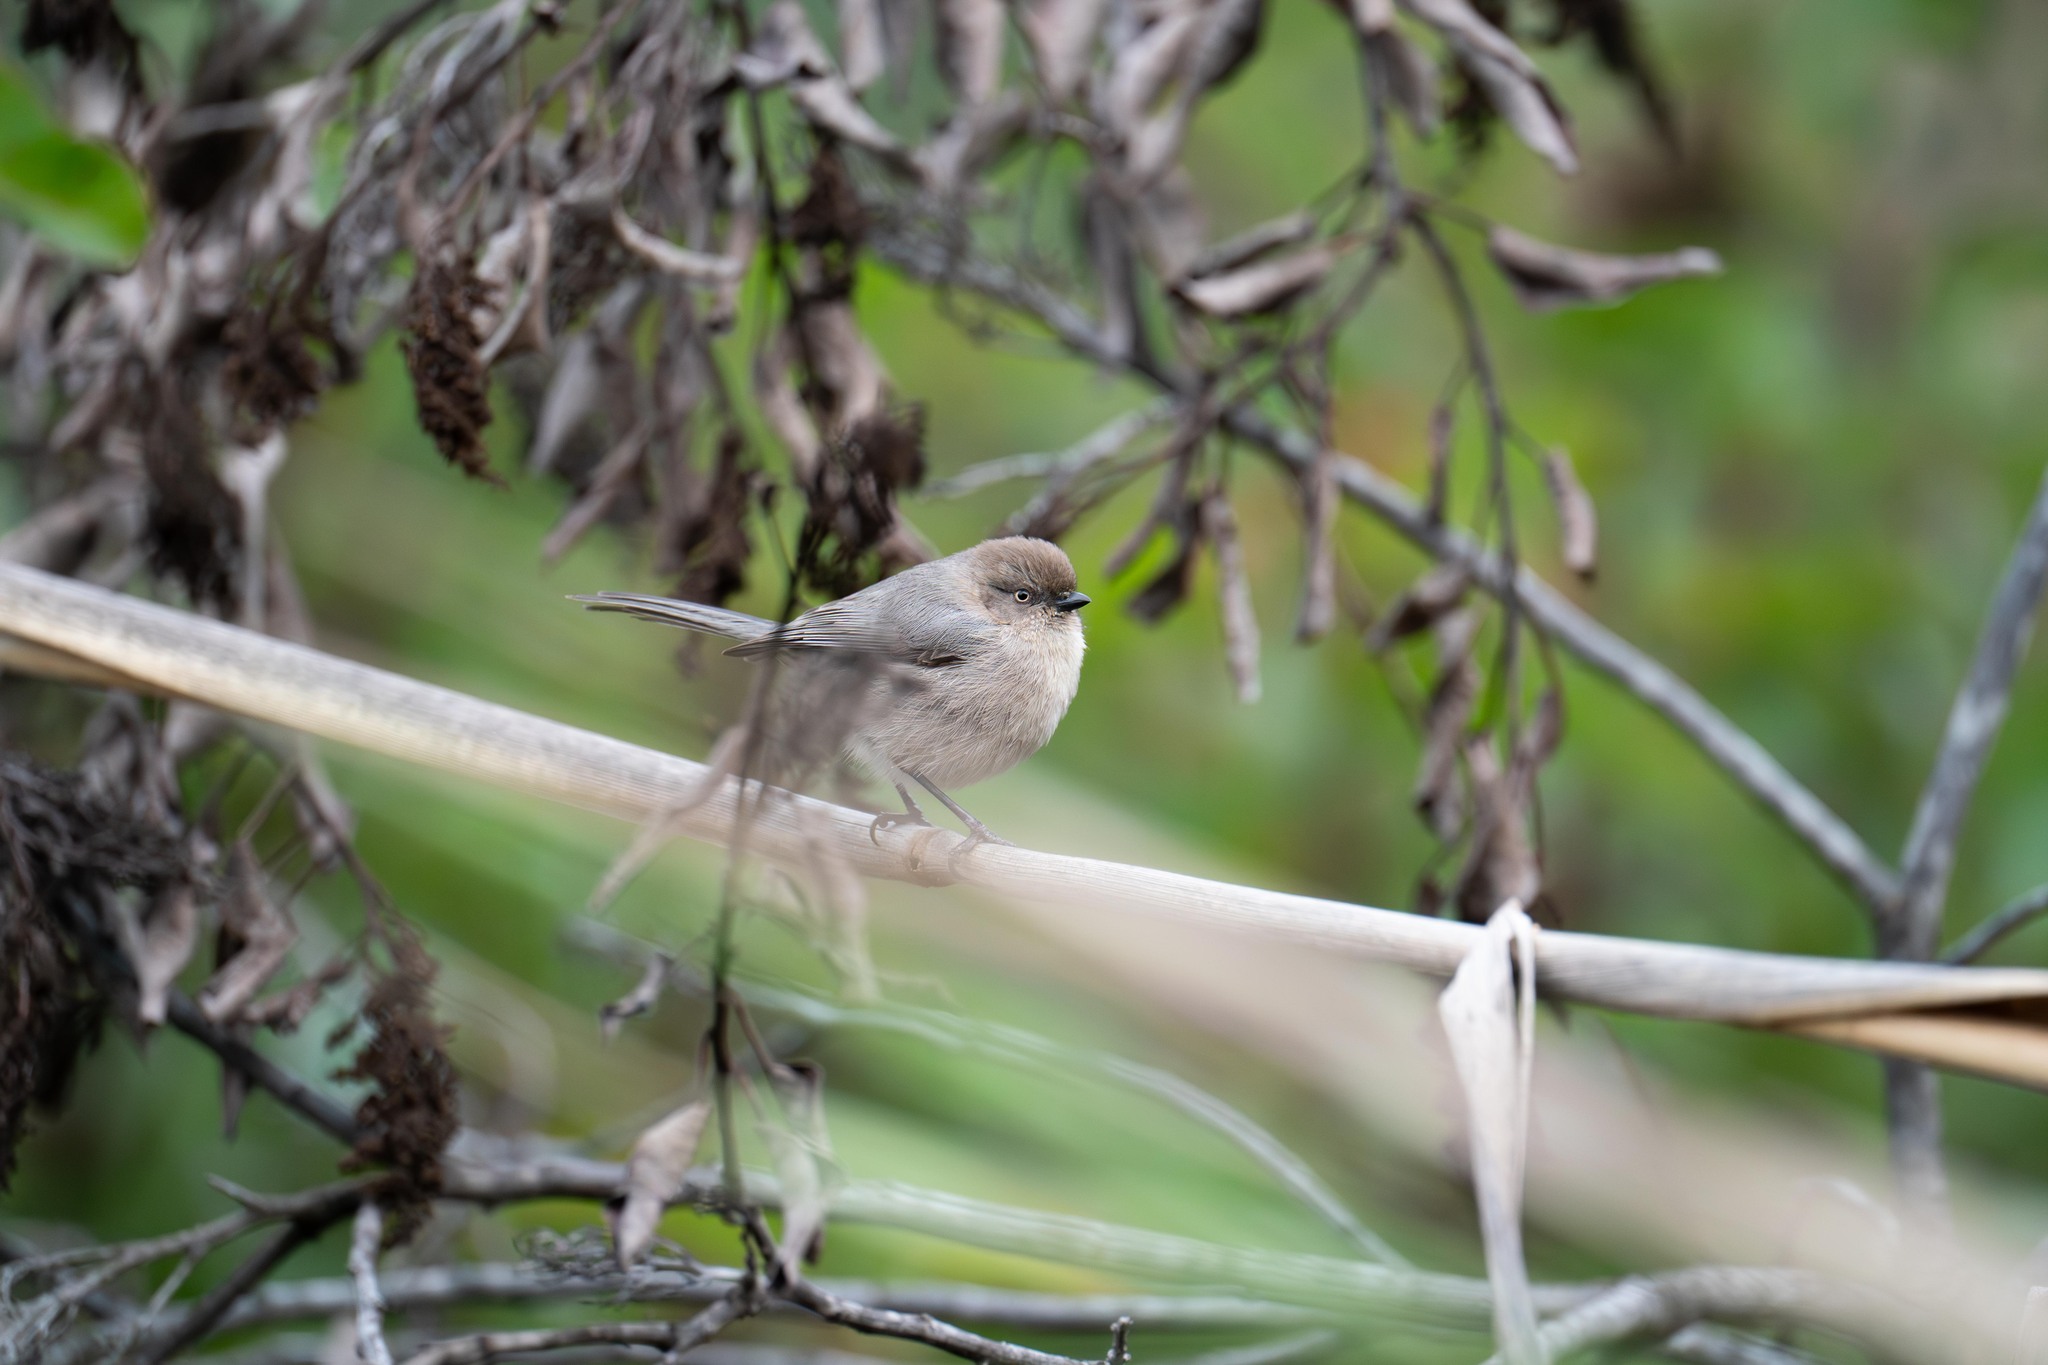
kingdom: Animalia
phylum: Chordata
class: Aves
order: Passeriformes
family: Aegithalidae
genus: Psaltriparus
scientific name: Psaltriparus minimus
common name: American bushtit
